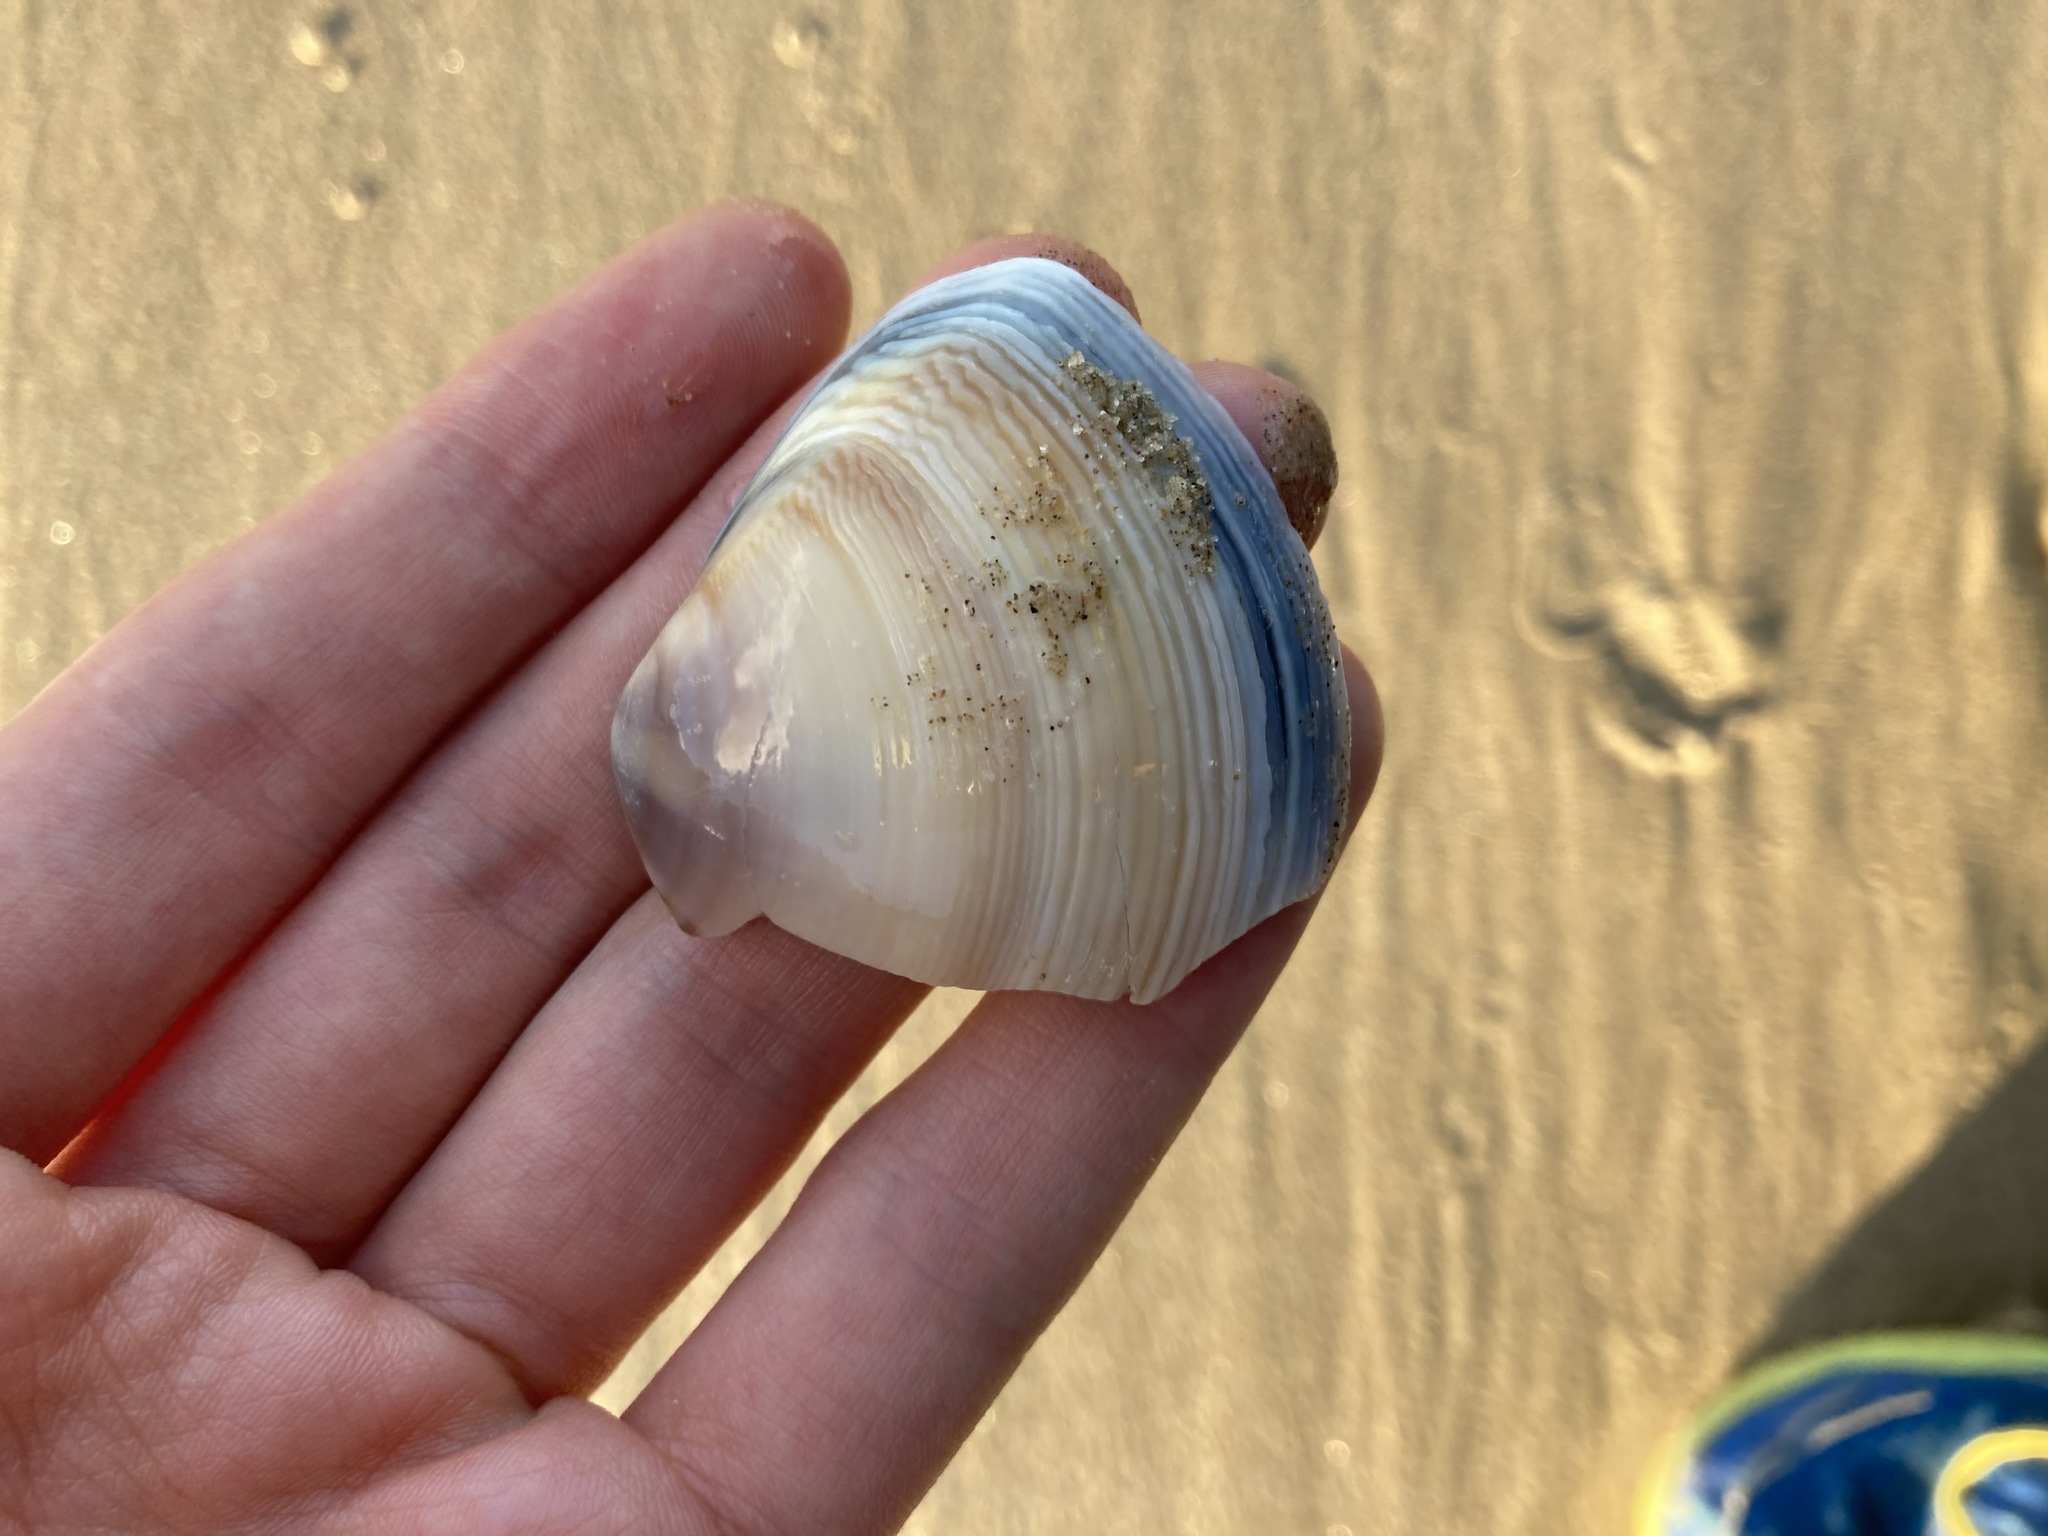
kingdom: Animalia
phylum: Mollusca
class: Bivalvia
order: Venerida
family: Mactridae
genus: Austromactra
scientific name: Austromactra rufescens
